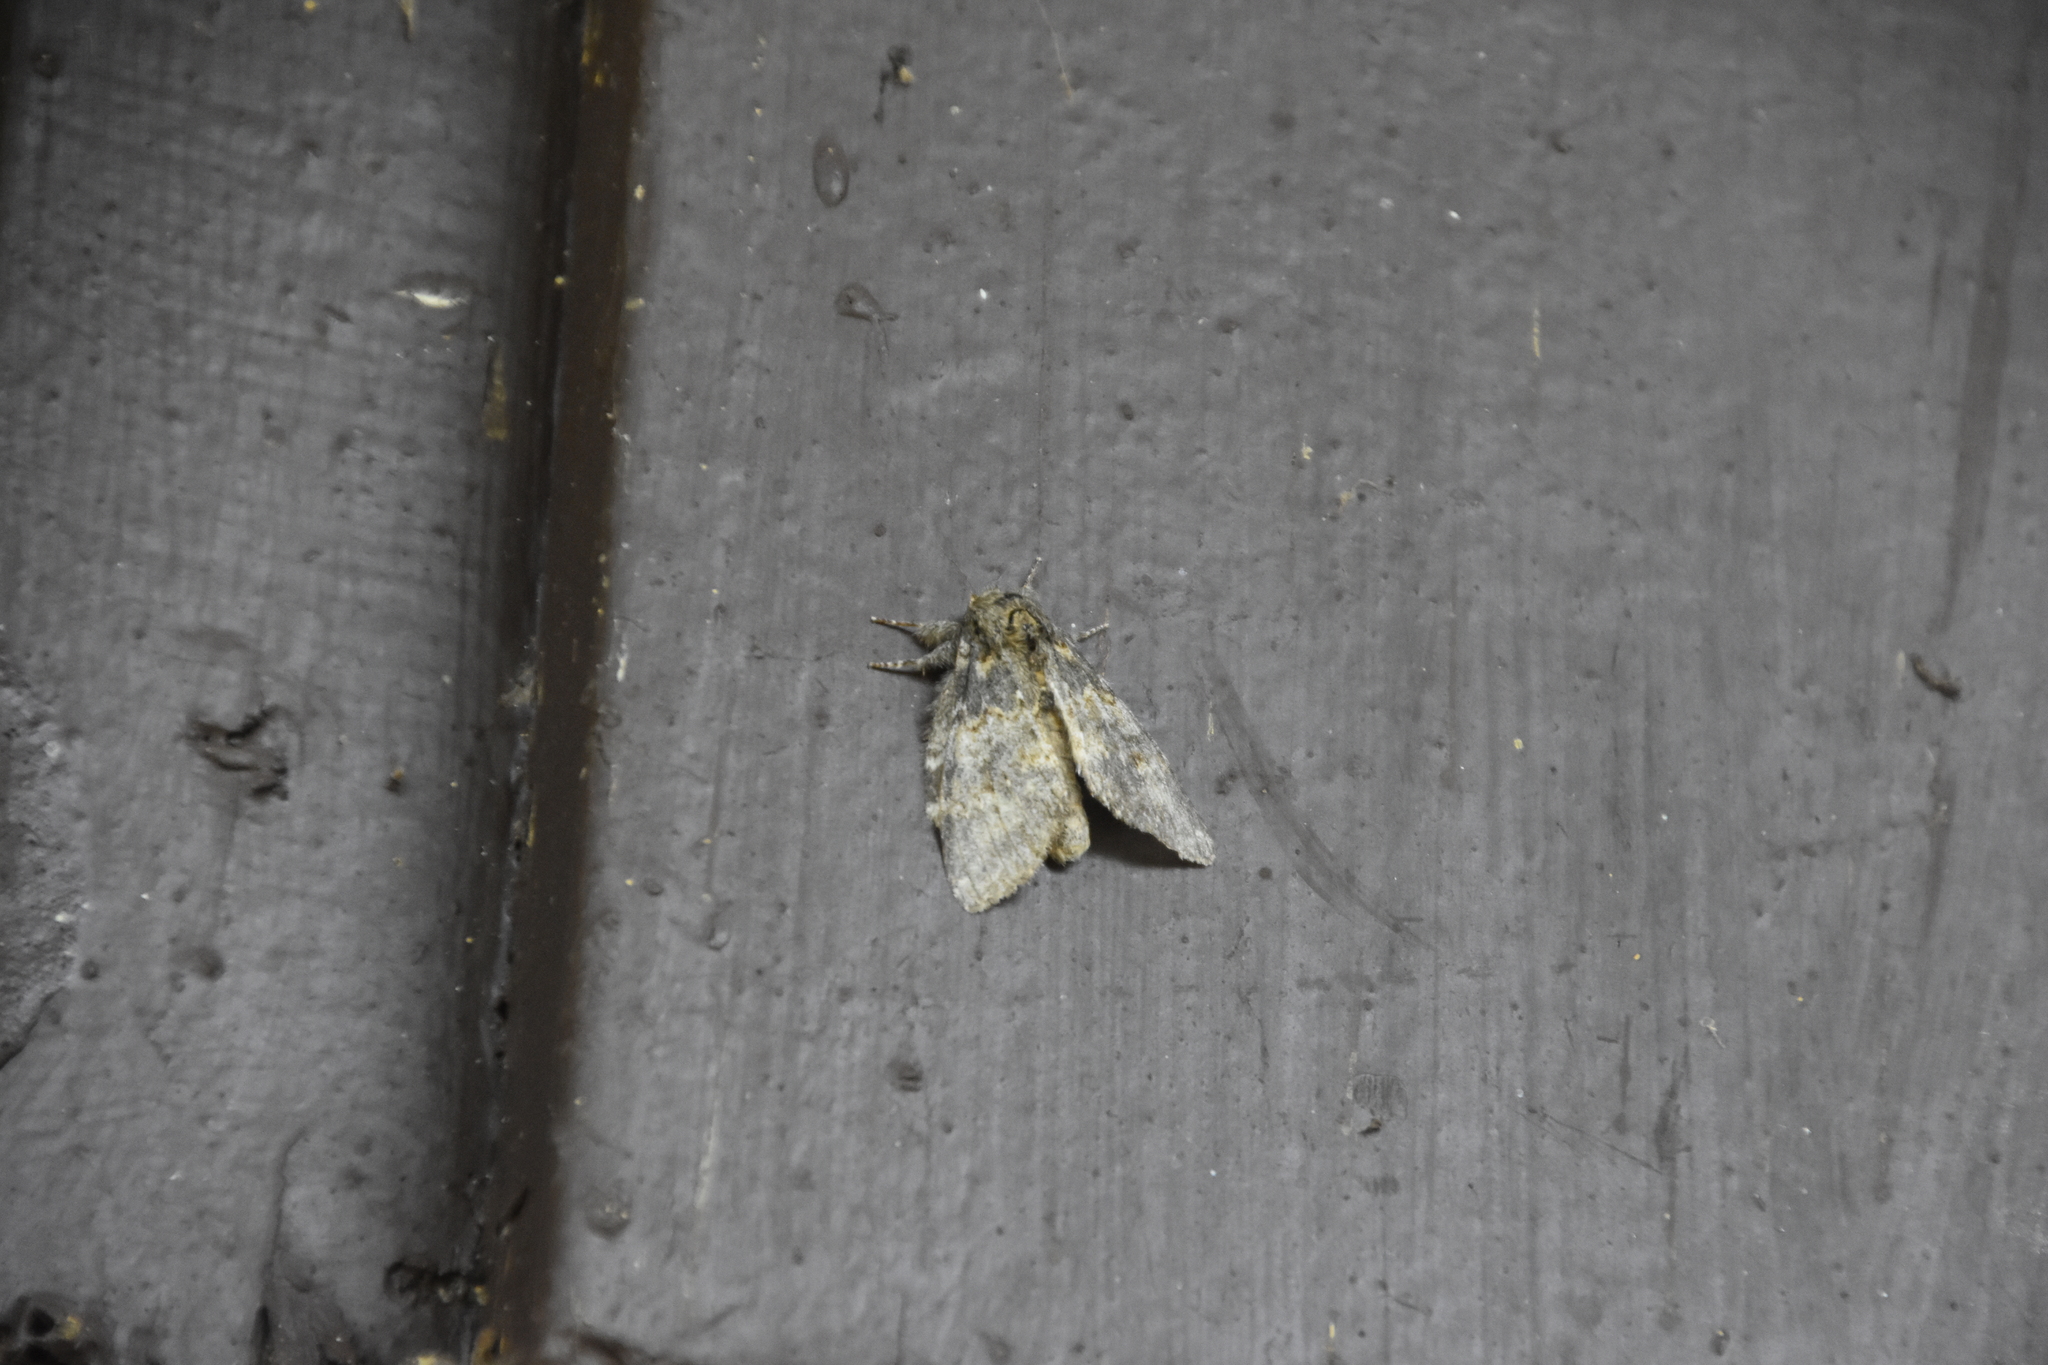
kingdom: Animalia
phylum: Arthropoda
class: Insecta
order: Lepidoptera
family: Notodontidae
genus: Peridea
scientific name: Peridea angulosa
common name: Angulose prominent
